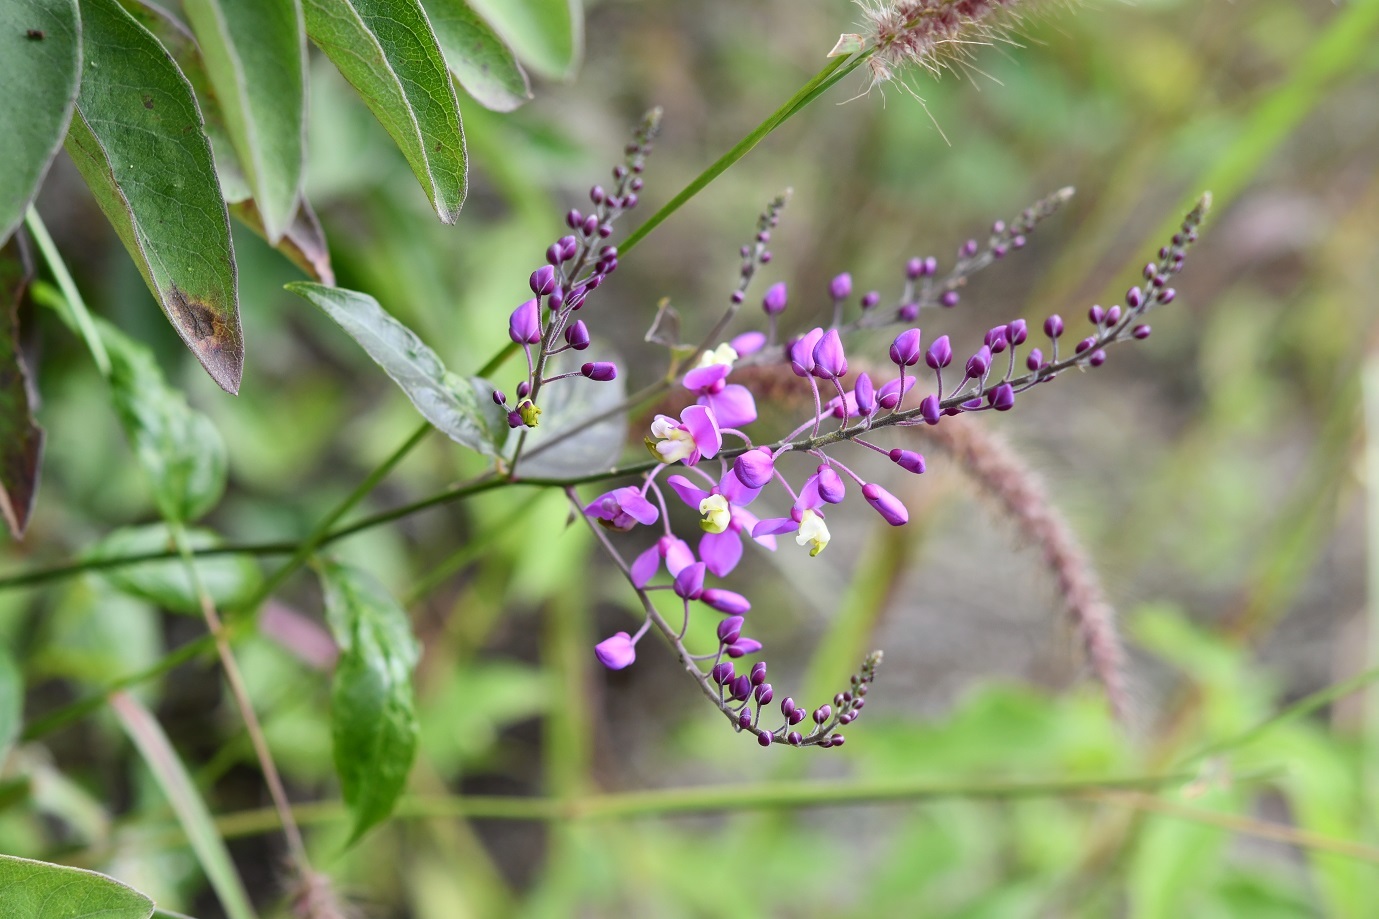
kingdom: Plantae
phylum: Tracheophyta
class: Magnoliopsida
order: Fabales
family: Polygalaceae
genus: Asemeia
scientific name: Asemeia floribunda
